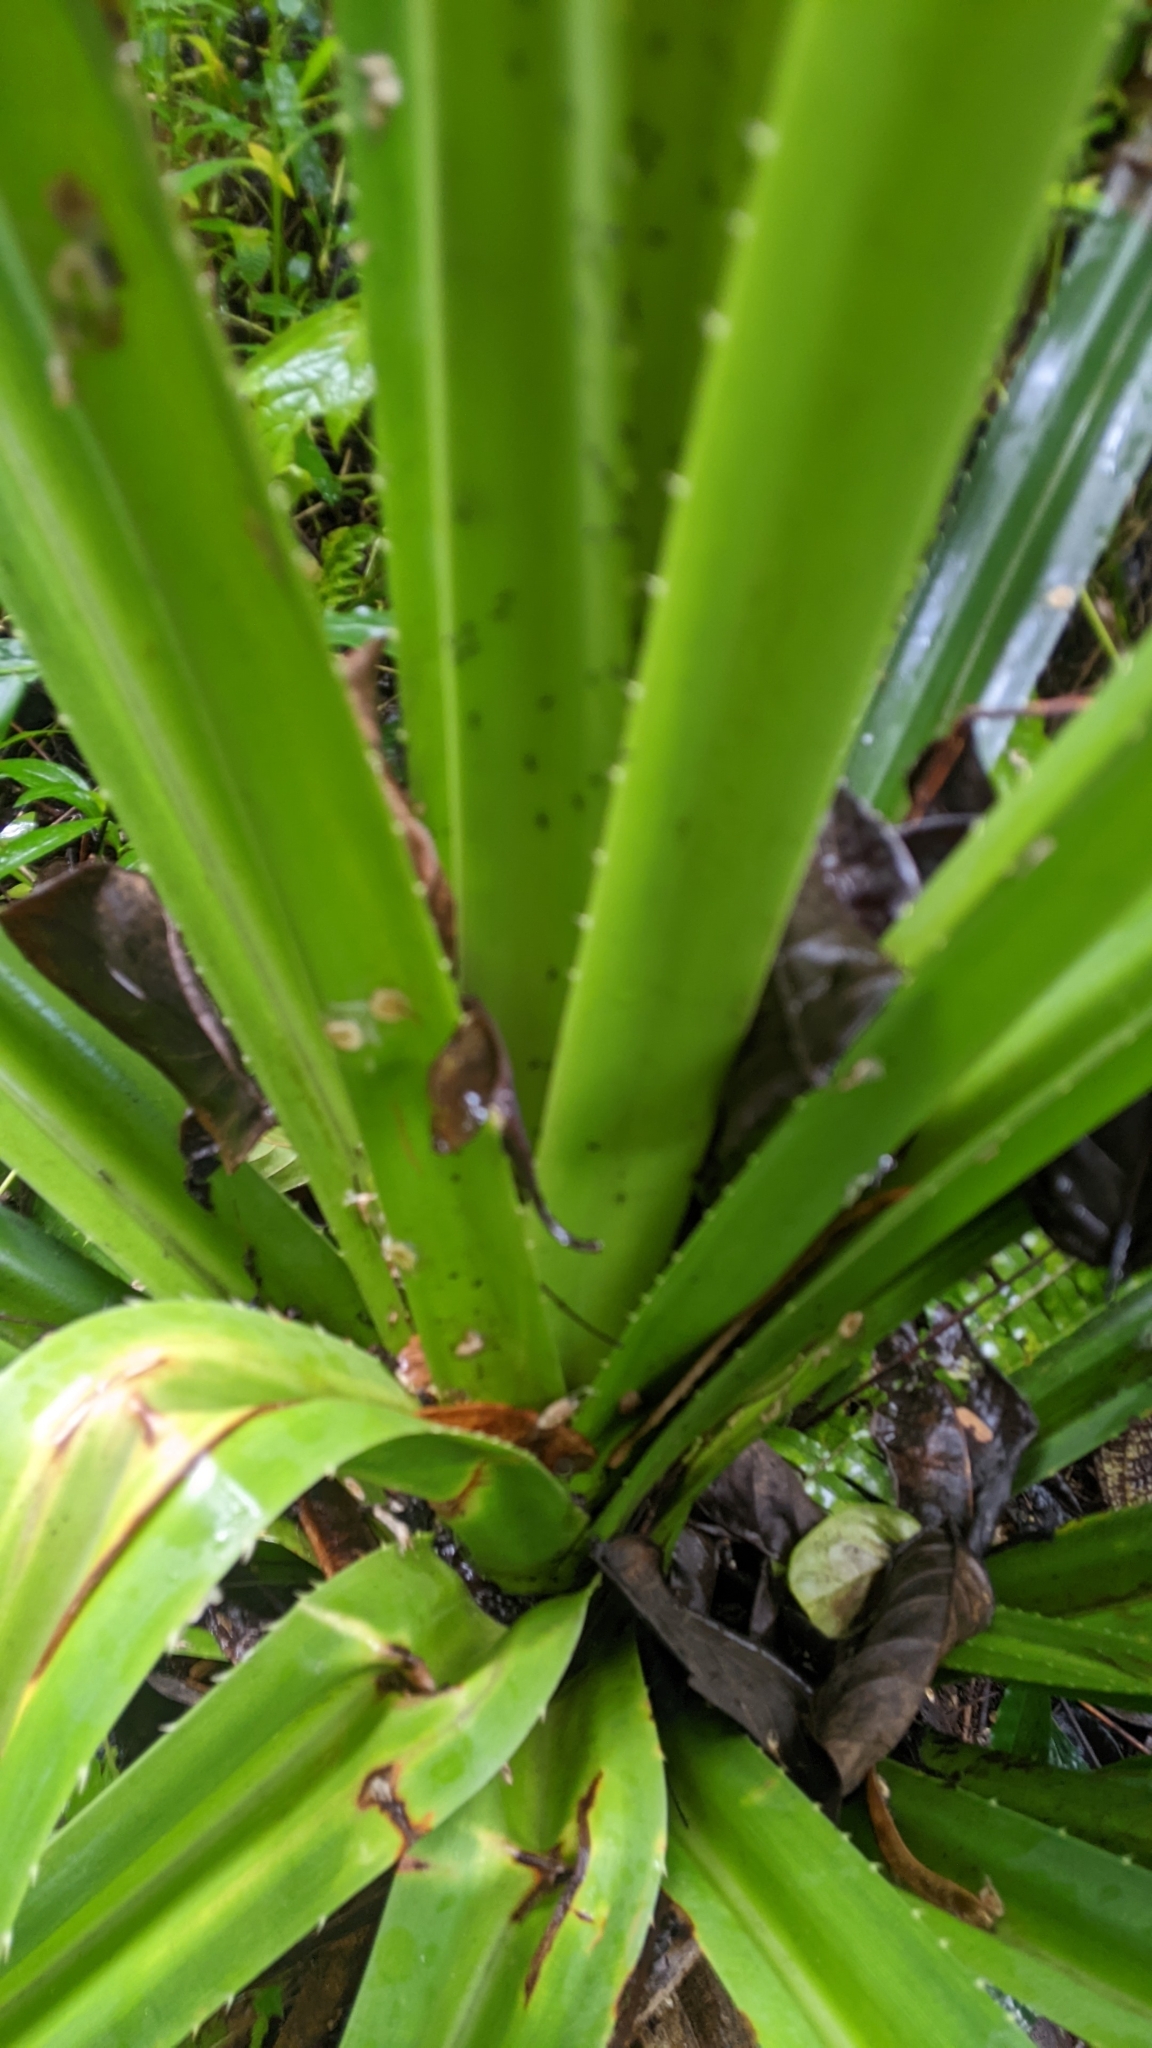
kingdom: Plantae
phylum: Tracheophyta
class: Liliopsida
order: Pandanales
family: Pandanaceae
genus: Pandanus
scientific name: Pandanus tectorius
